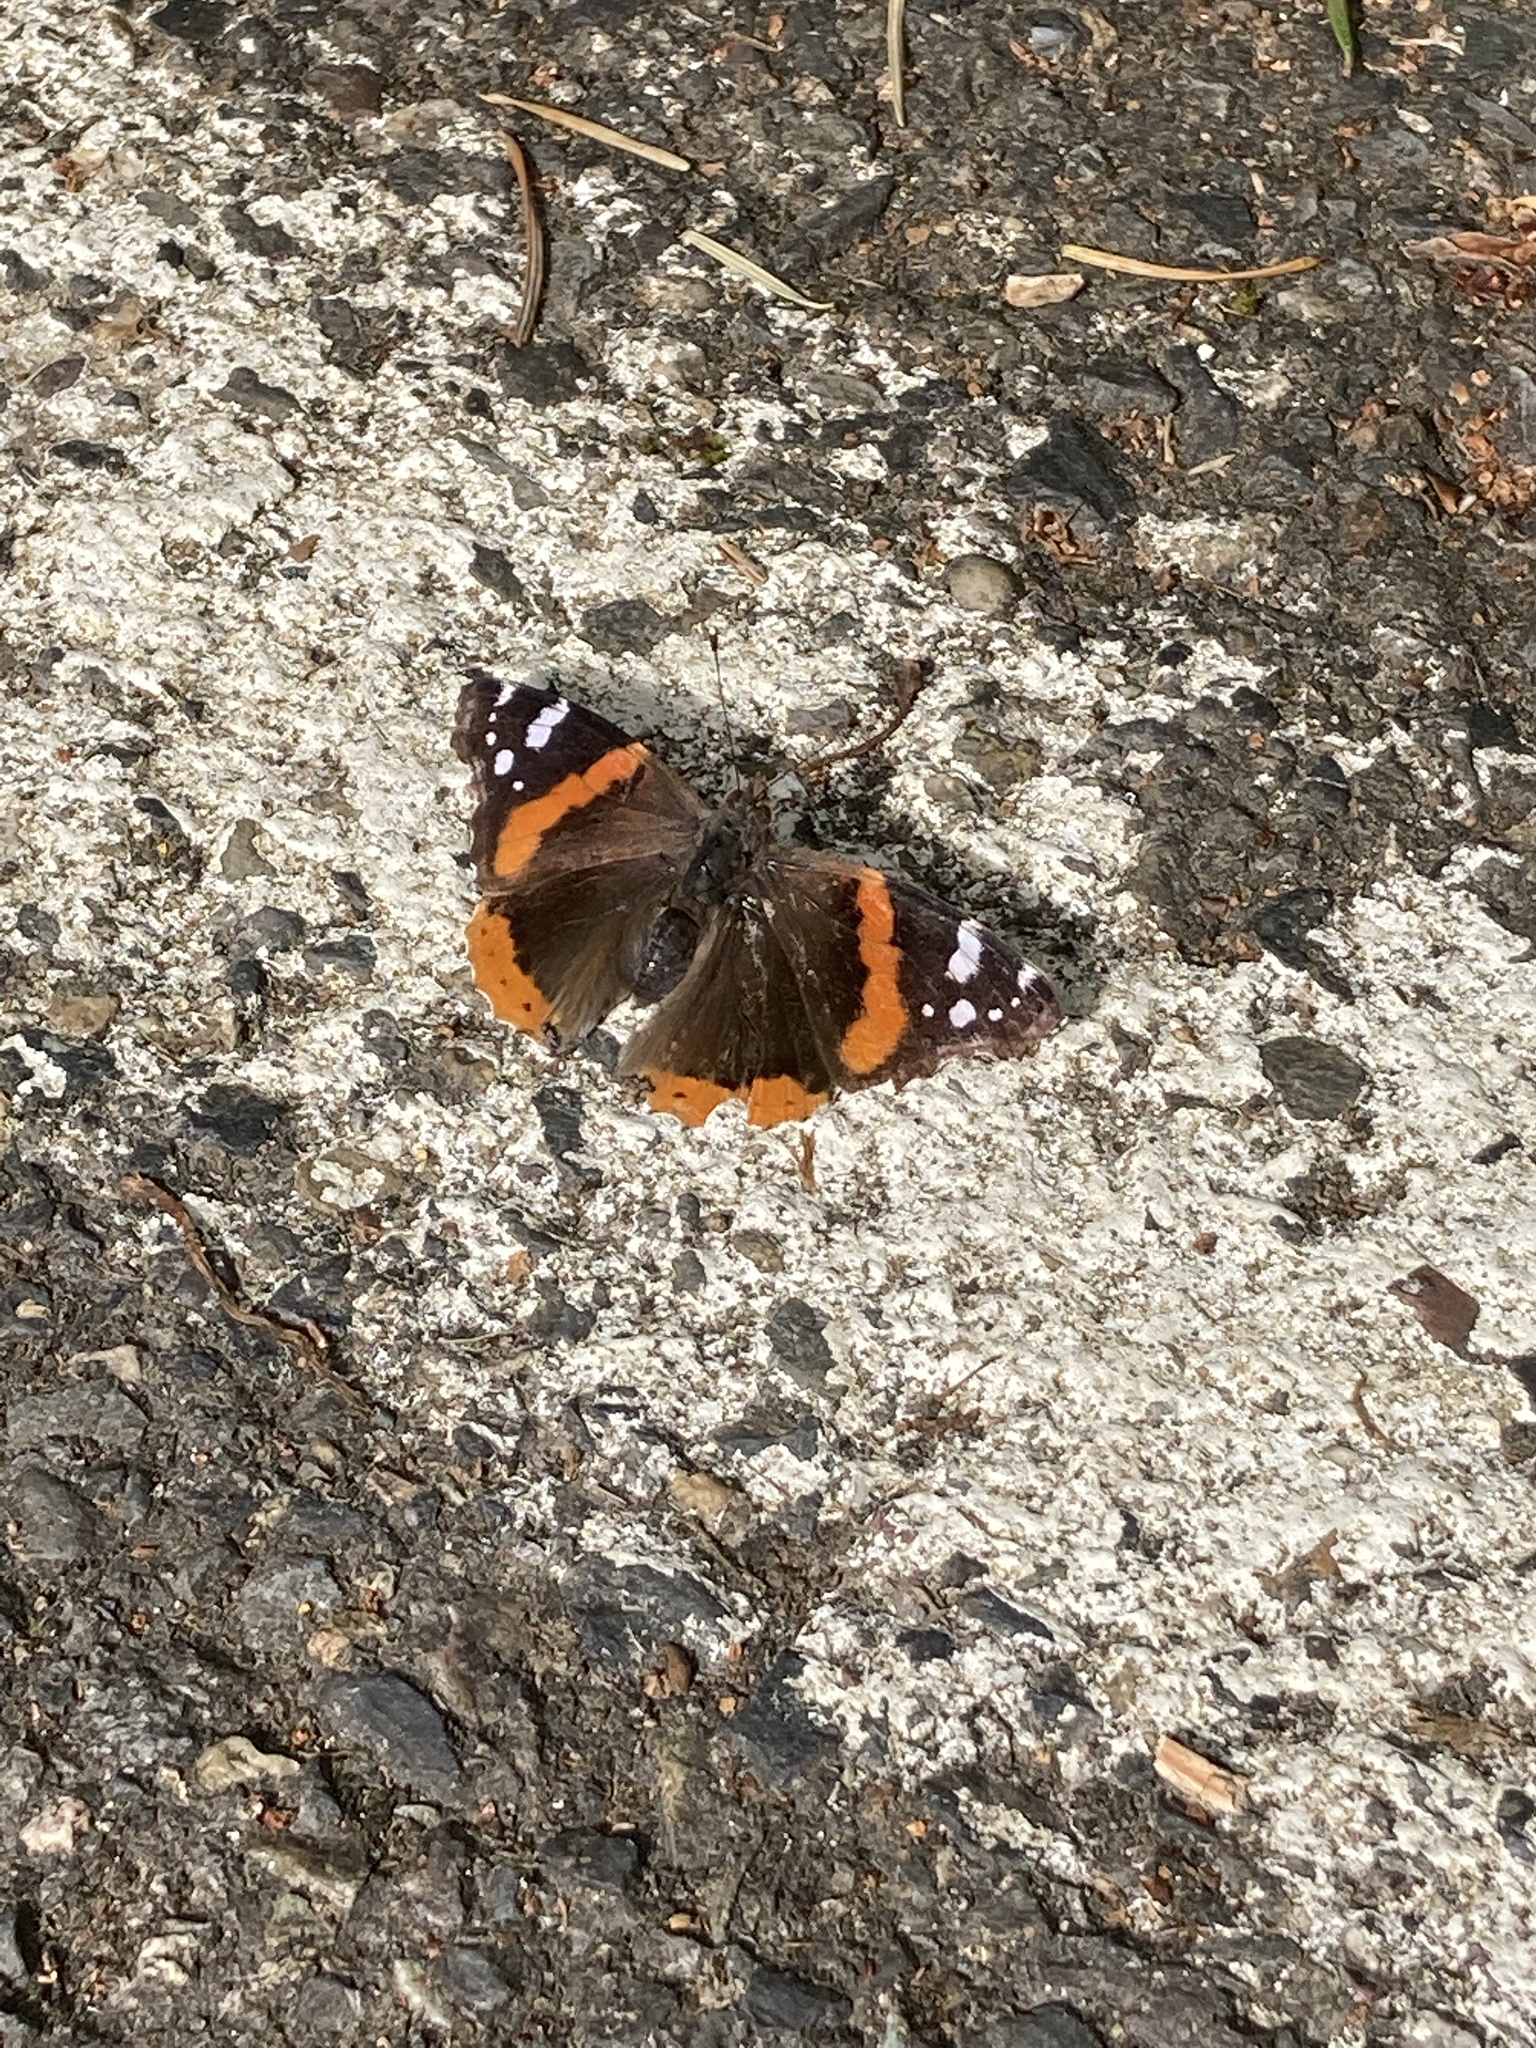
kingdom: Animalia
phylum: Arthropoda
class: Insecta
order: Lepidoptera
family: Nymphalidae
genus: Vanessa
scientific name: Vanessa atalanta
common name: Red admiral
